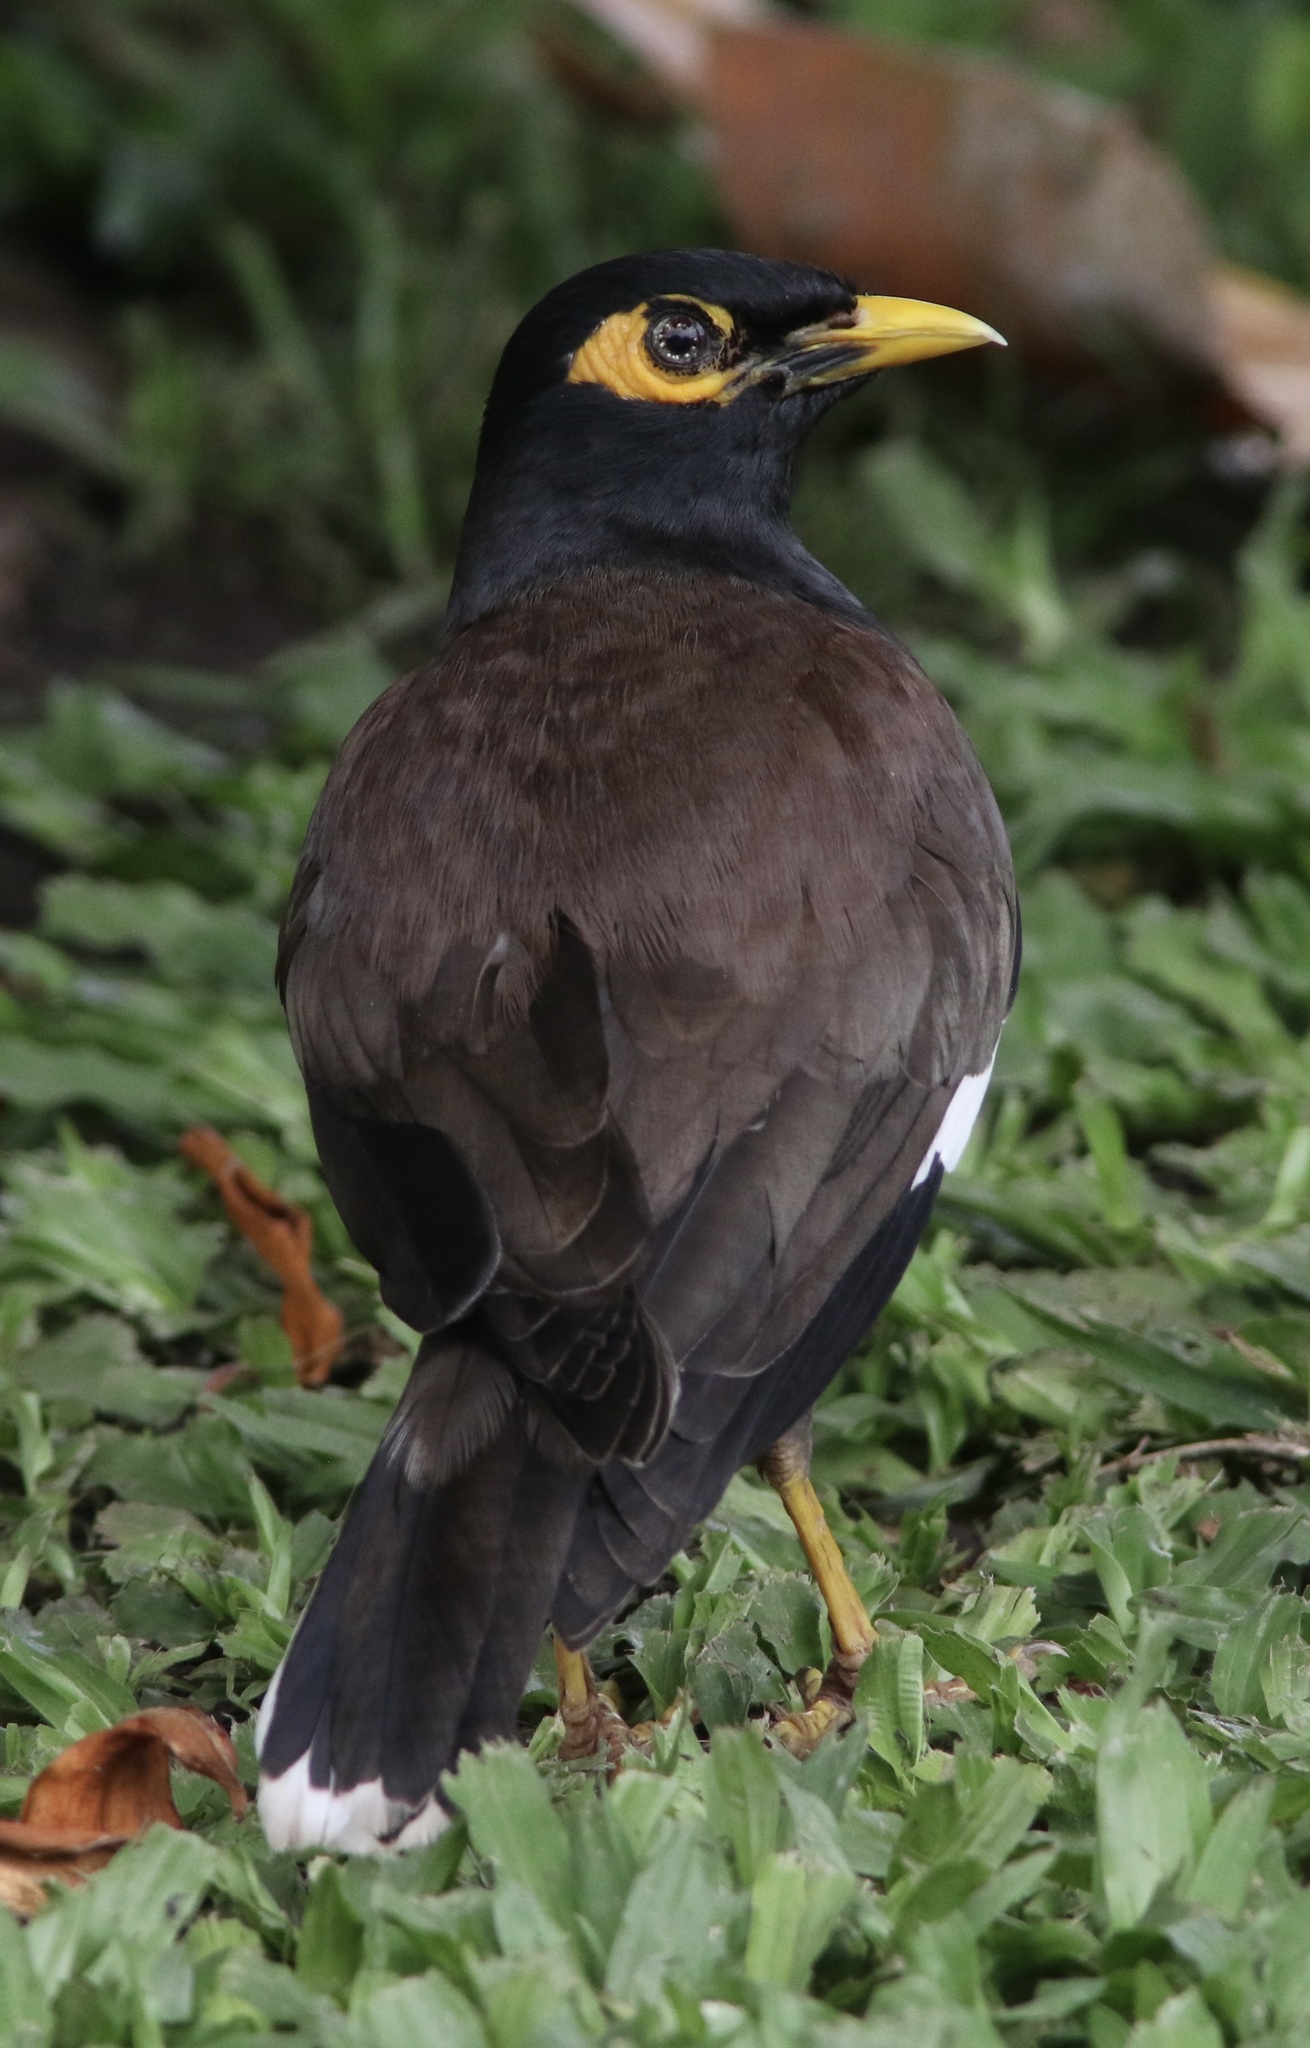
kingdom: Animalia
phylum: Chordata
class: Aves
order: Passeriformes
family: Sturnidae
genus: Acridotheres
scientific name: Acridotheres tristis
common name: Common myna
